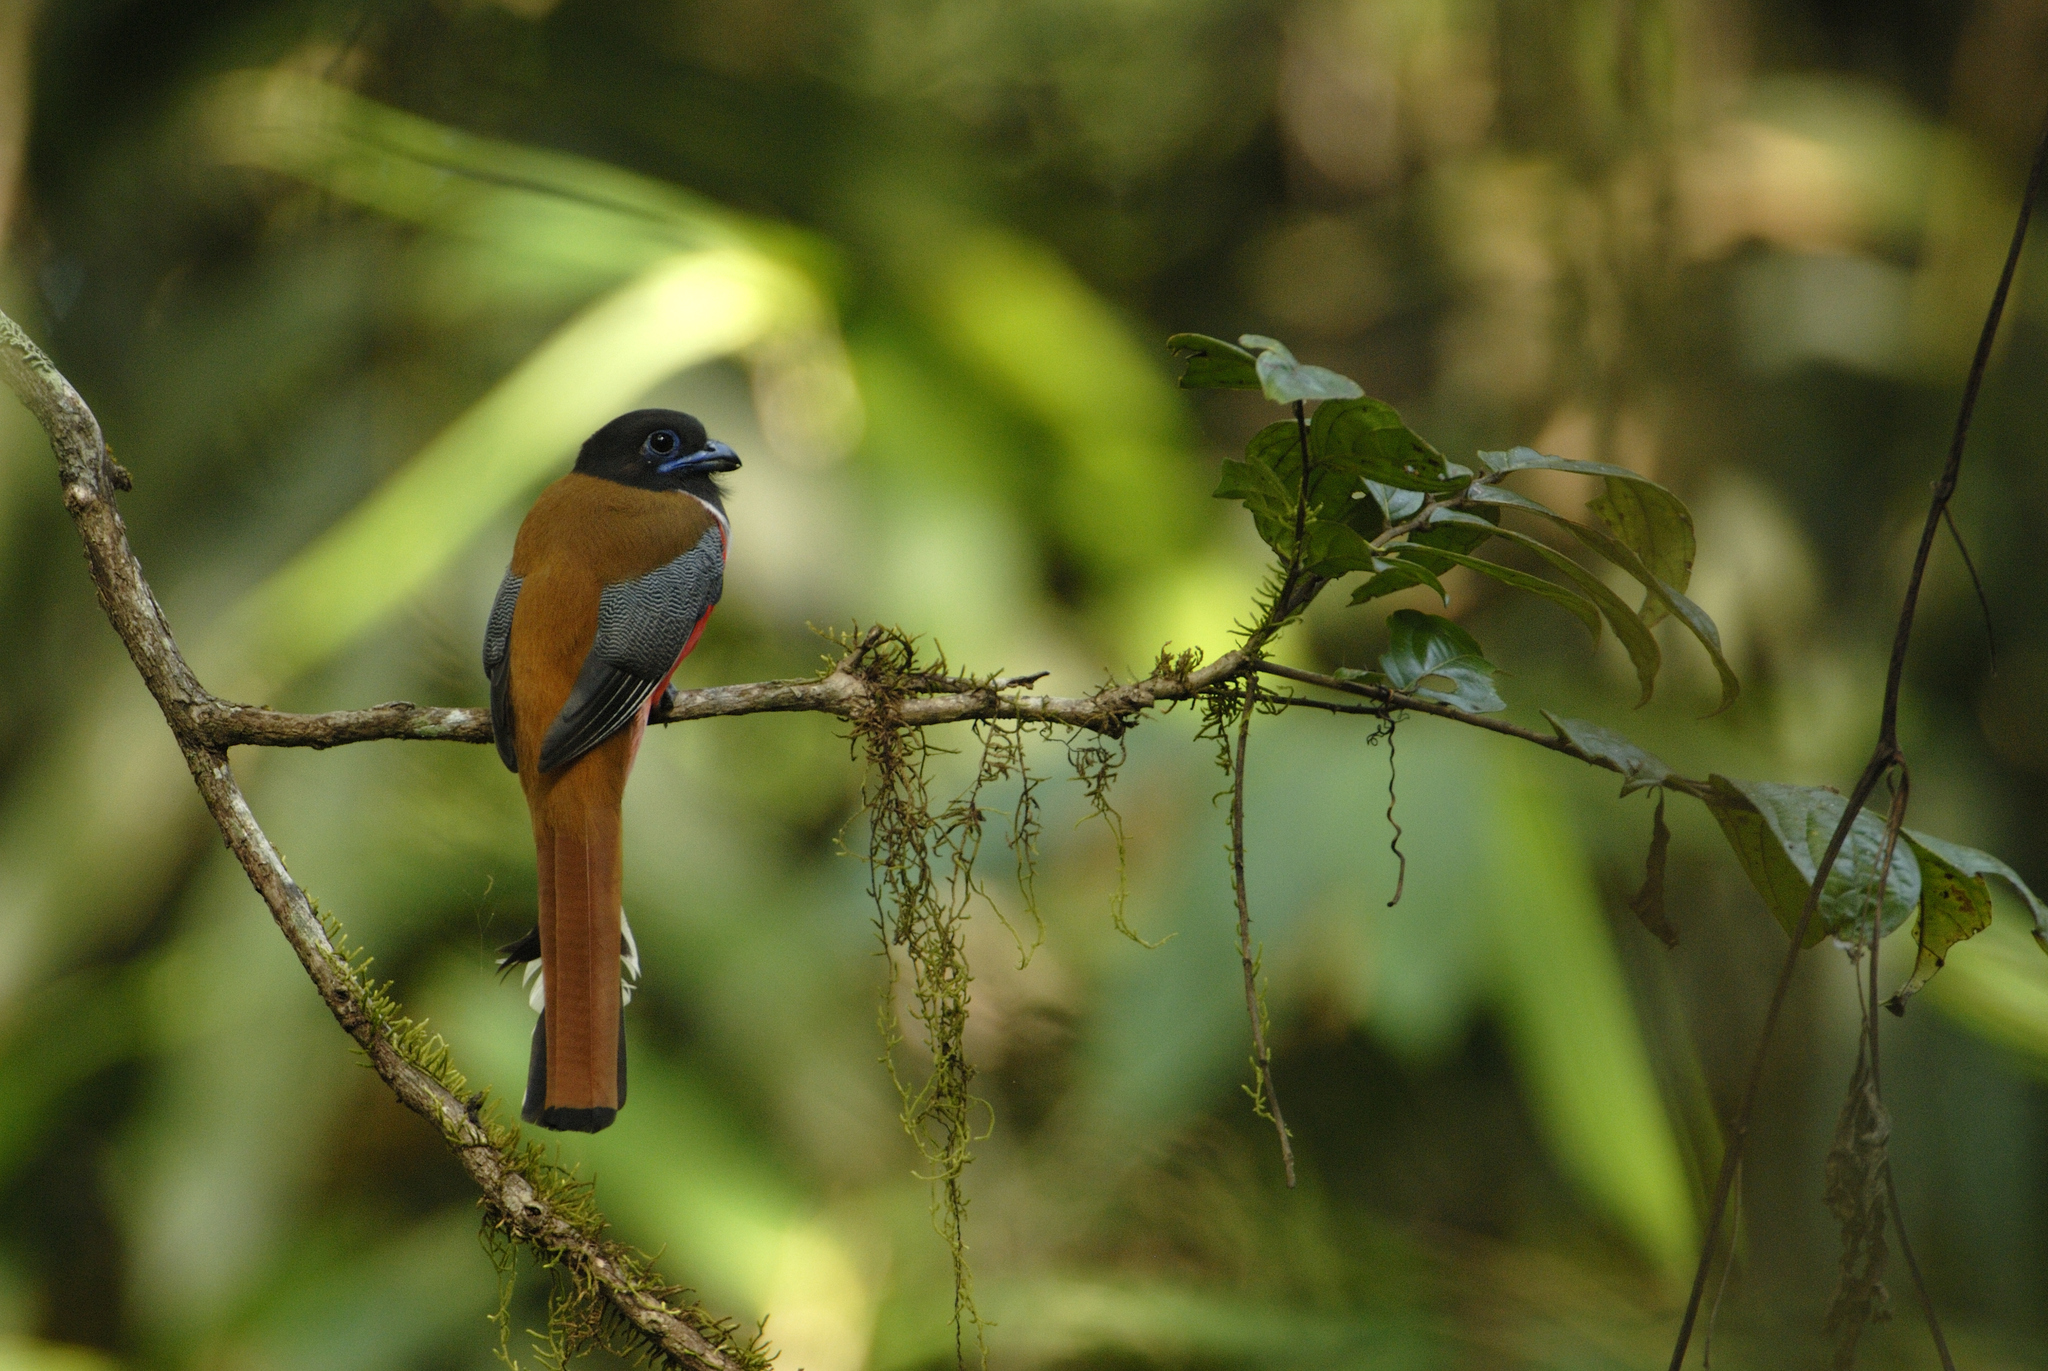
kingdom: Animalia
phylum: Chordata
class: Aves
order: Trogoniformes
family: Trogonidae
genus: Harpactes
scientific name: Harpactes fasciatus
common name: Malabar trogon
